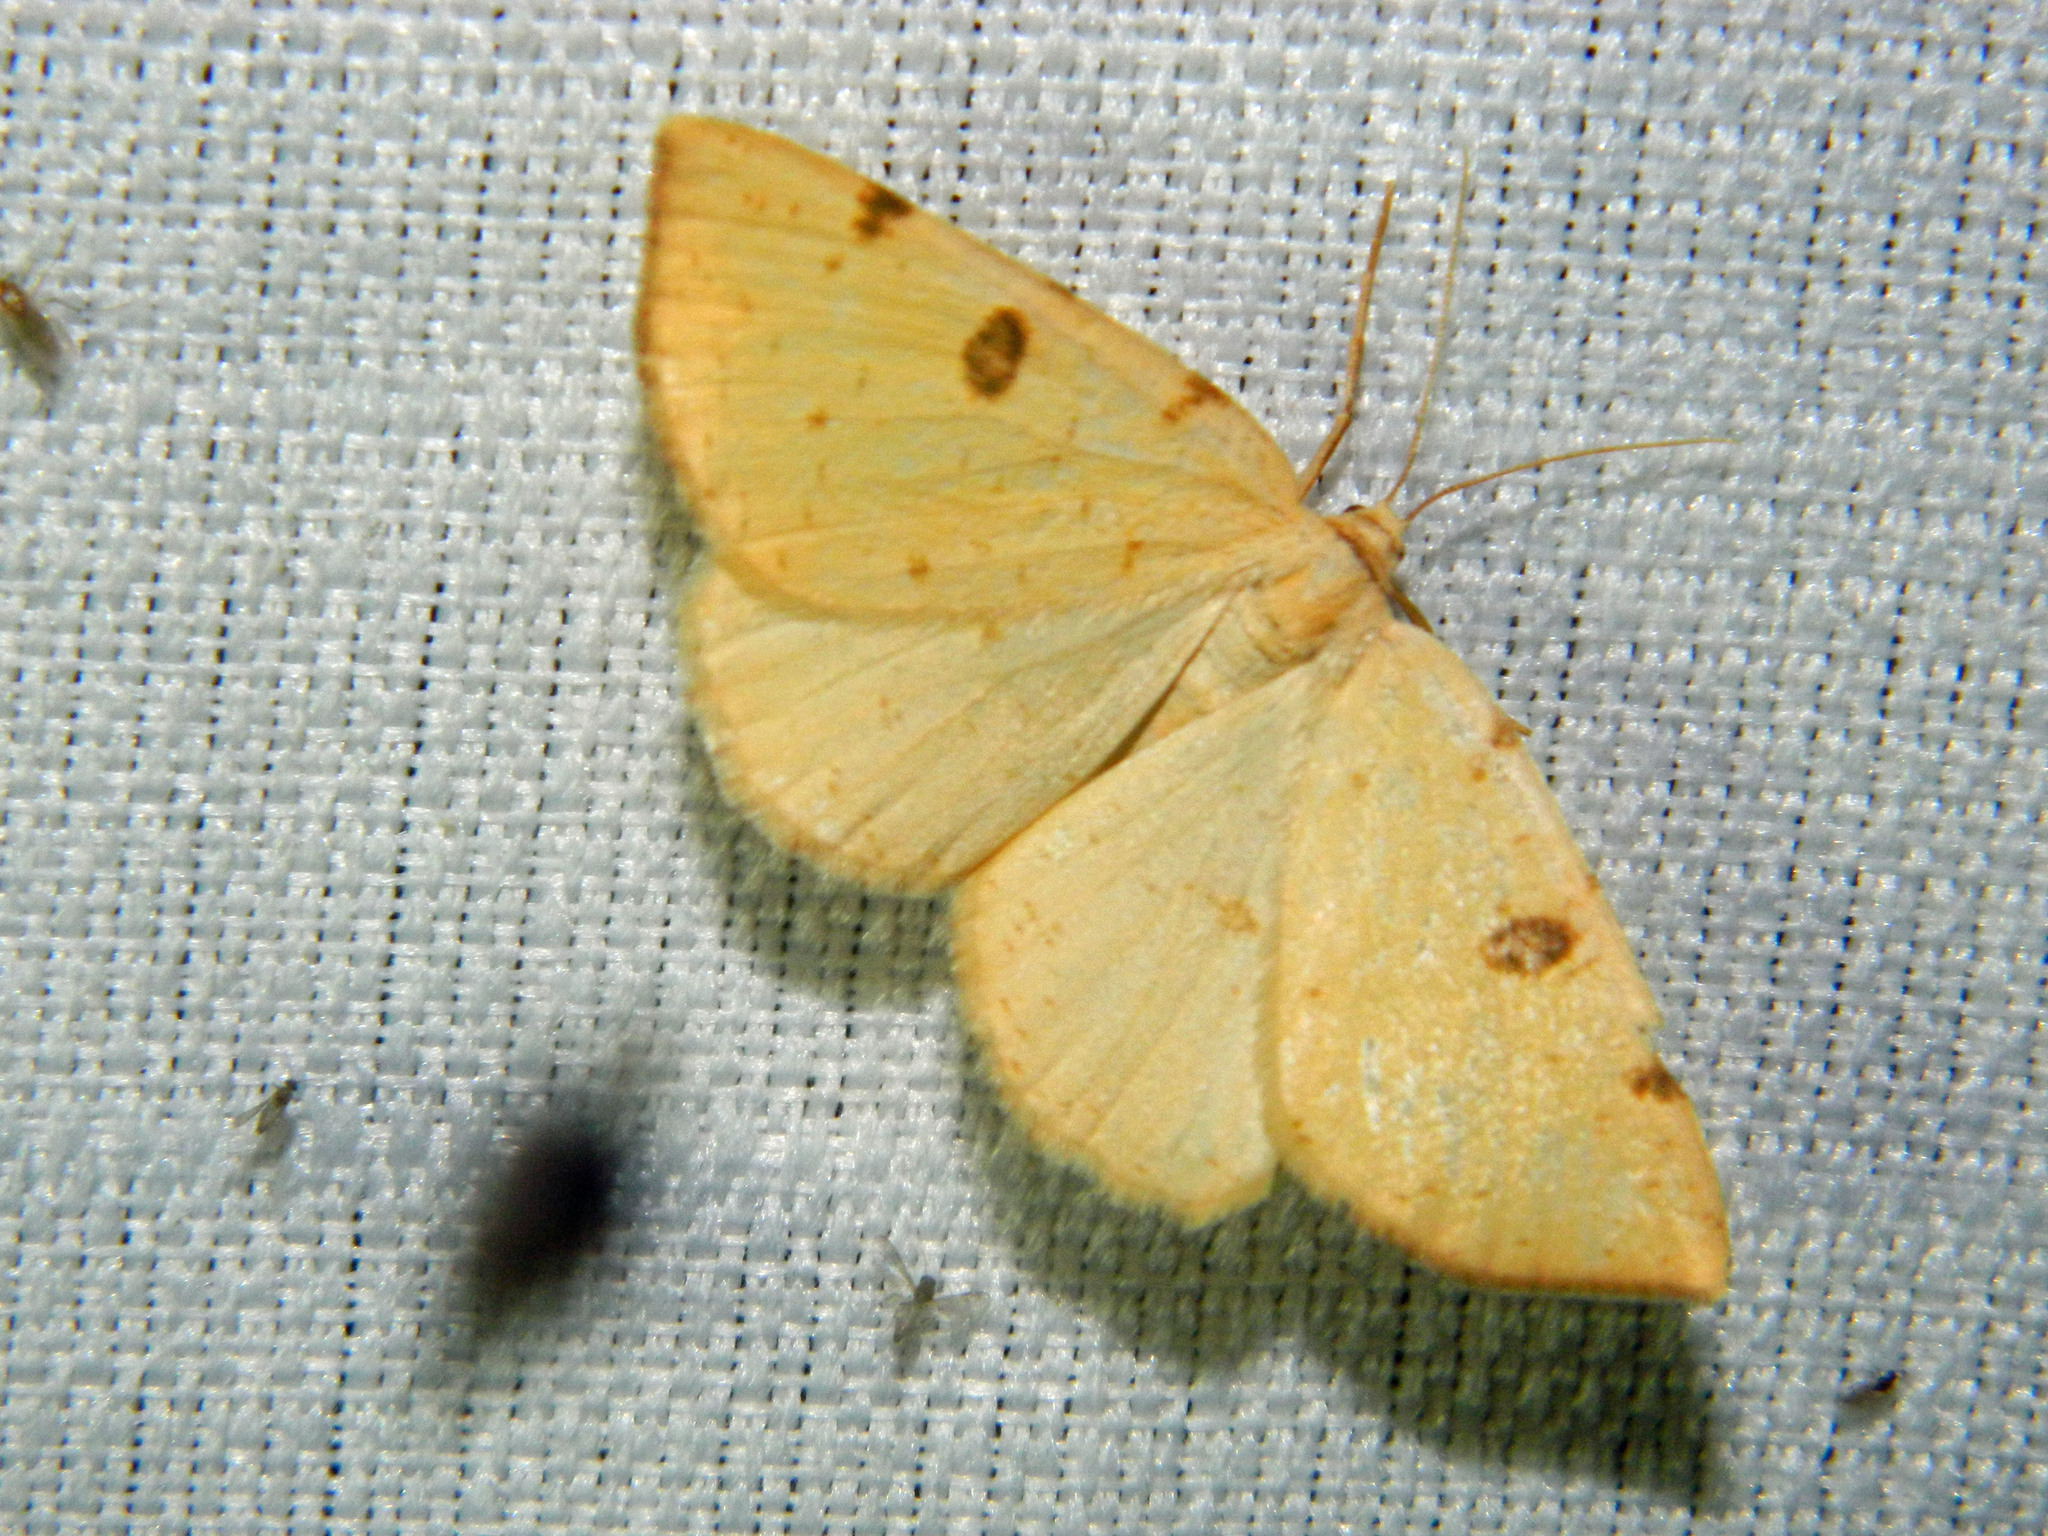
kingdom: Animalia
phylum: Arthropoda
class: Insecta
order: Lepidoptera
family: Geometridae
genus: Hesperumia
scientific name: Hesperumia sulphuraria
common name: Sulphur moth
